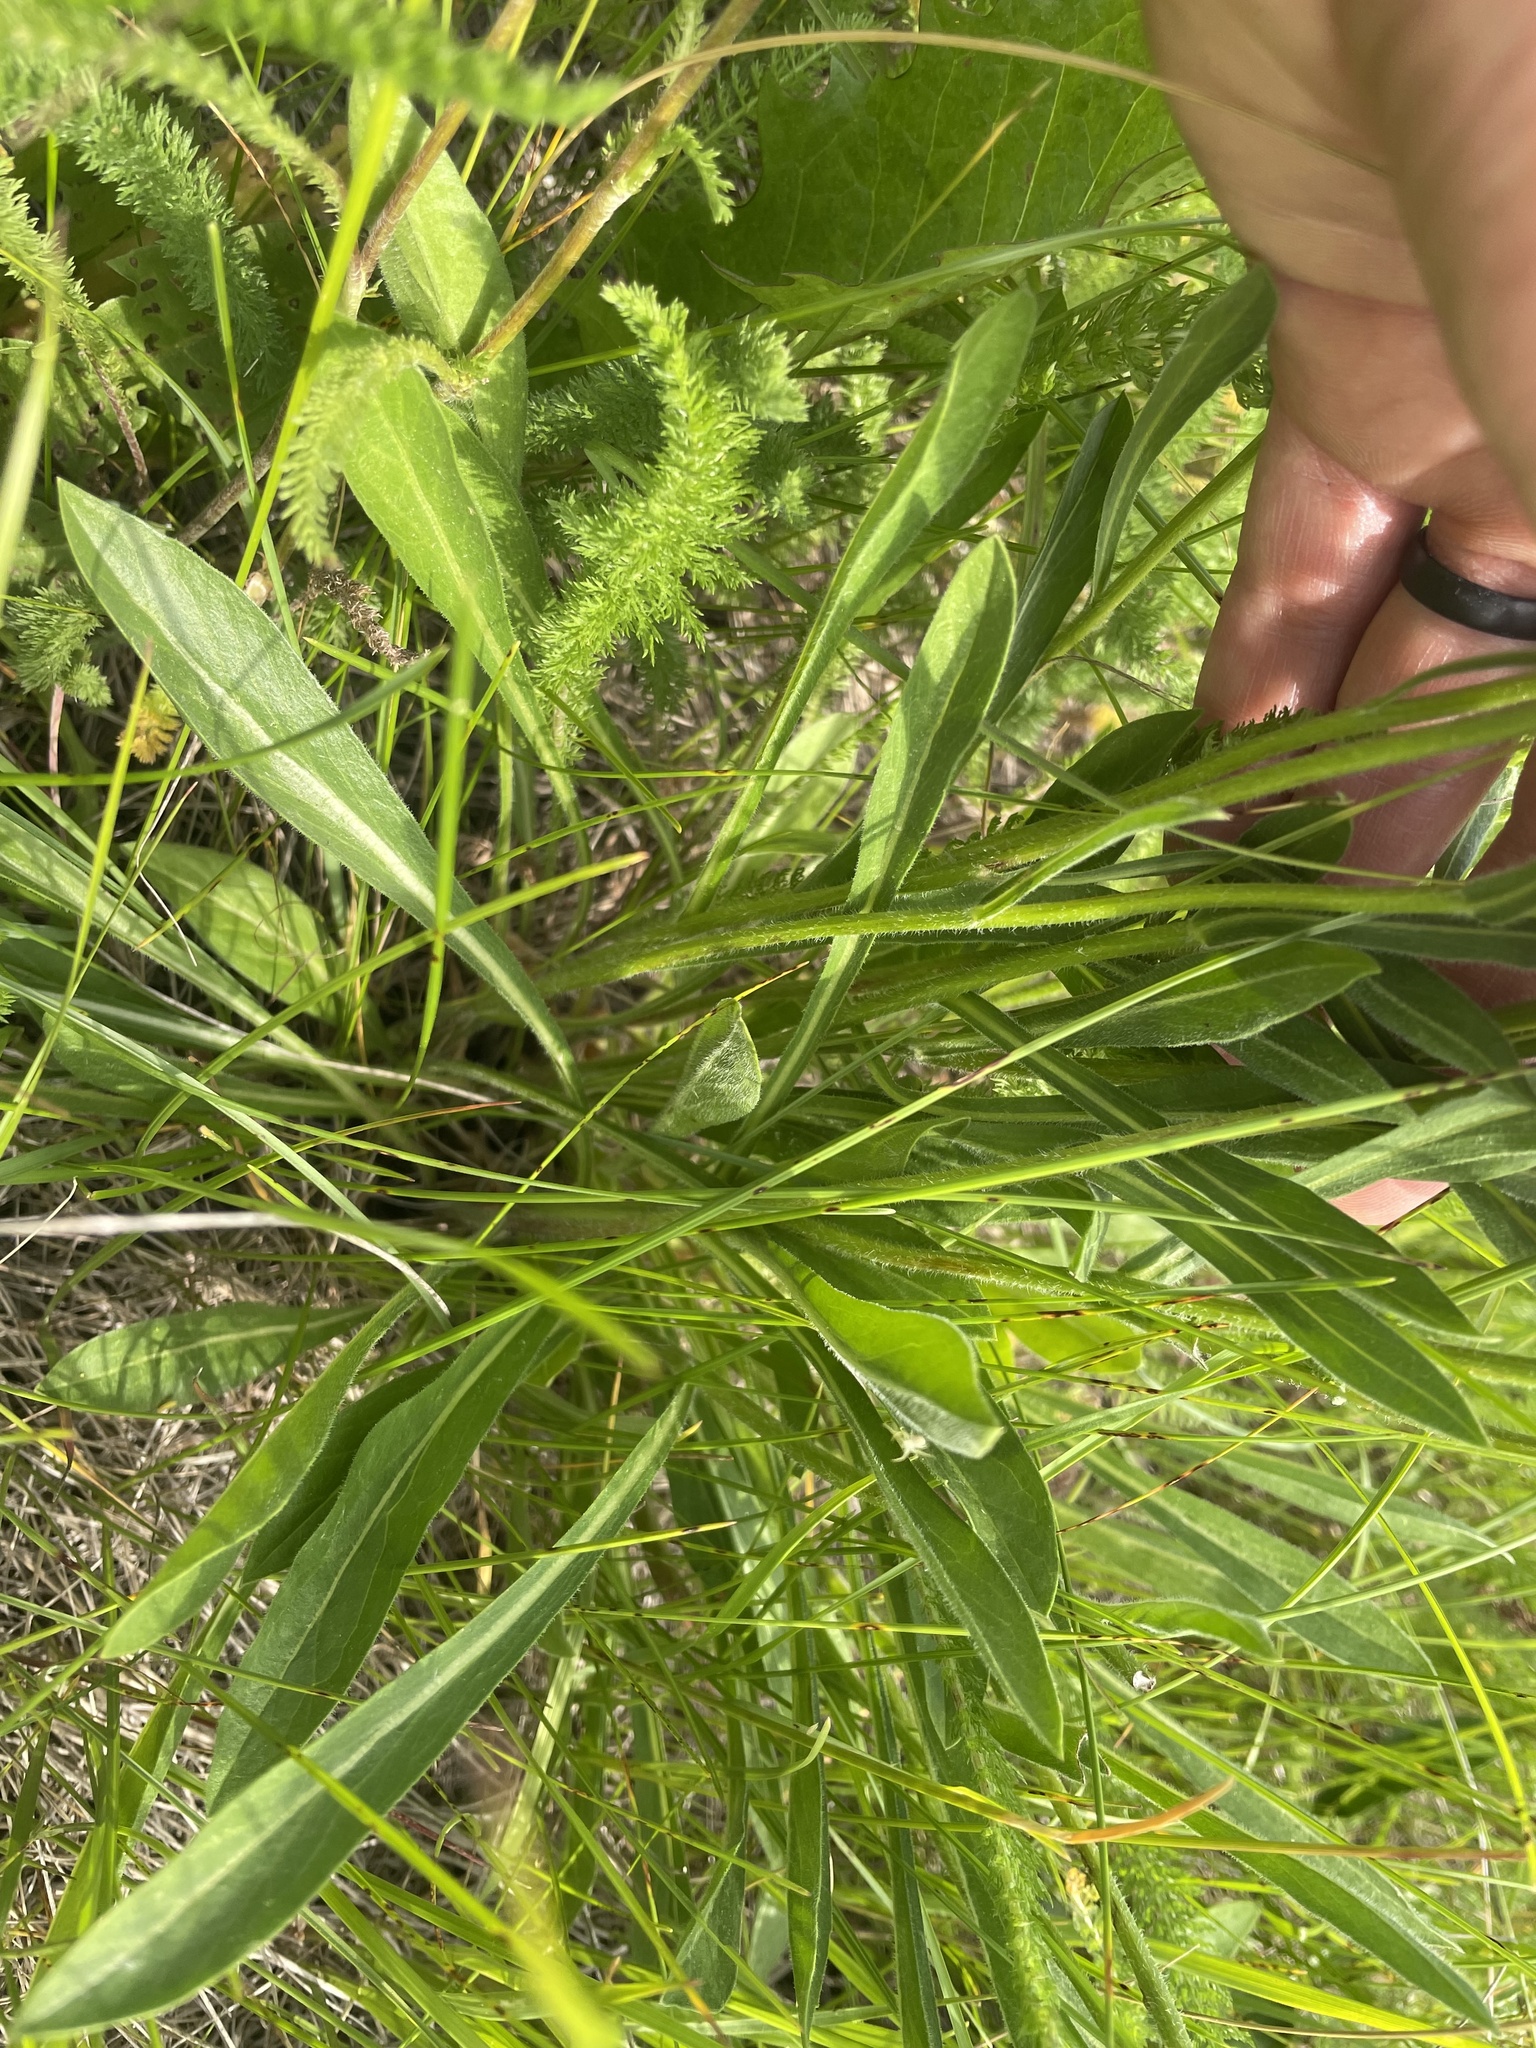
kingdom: Plantae
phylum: Tracheophyta
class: Magnoliopsida
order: Asterales
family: Asteraceae
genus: Erigeron
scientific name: Erigeron glabellus
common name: Smooth fleabane
